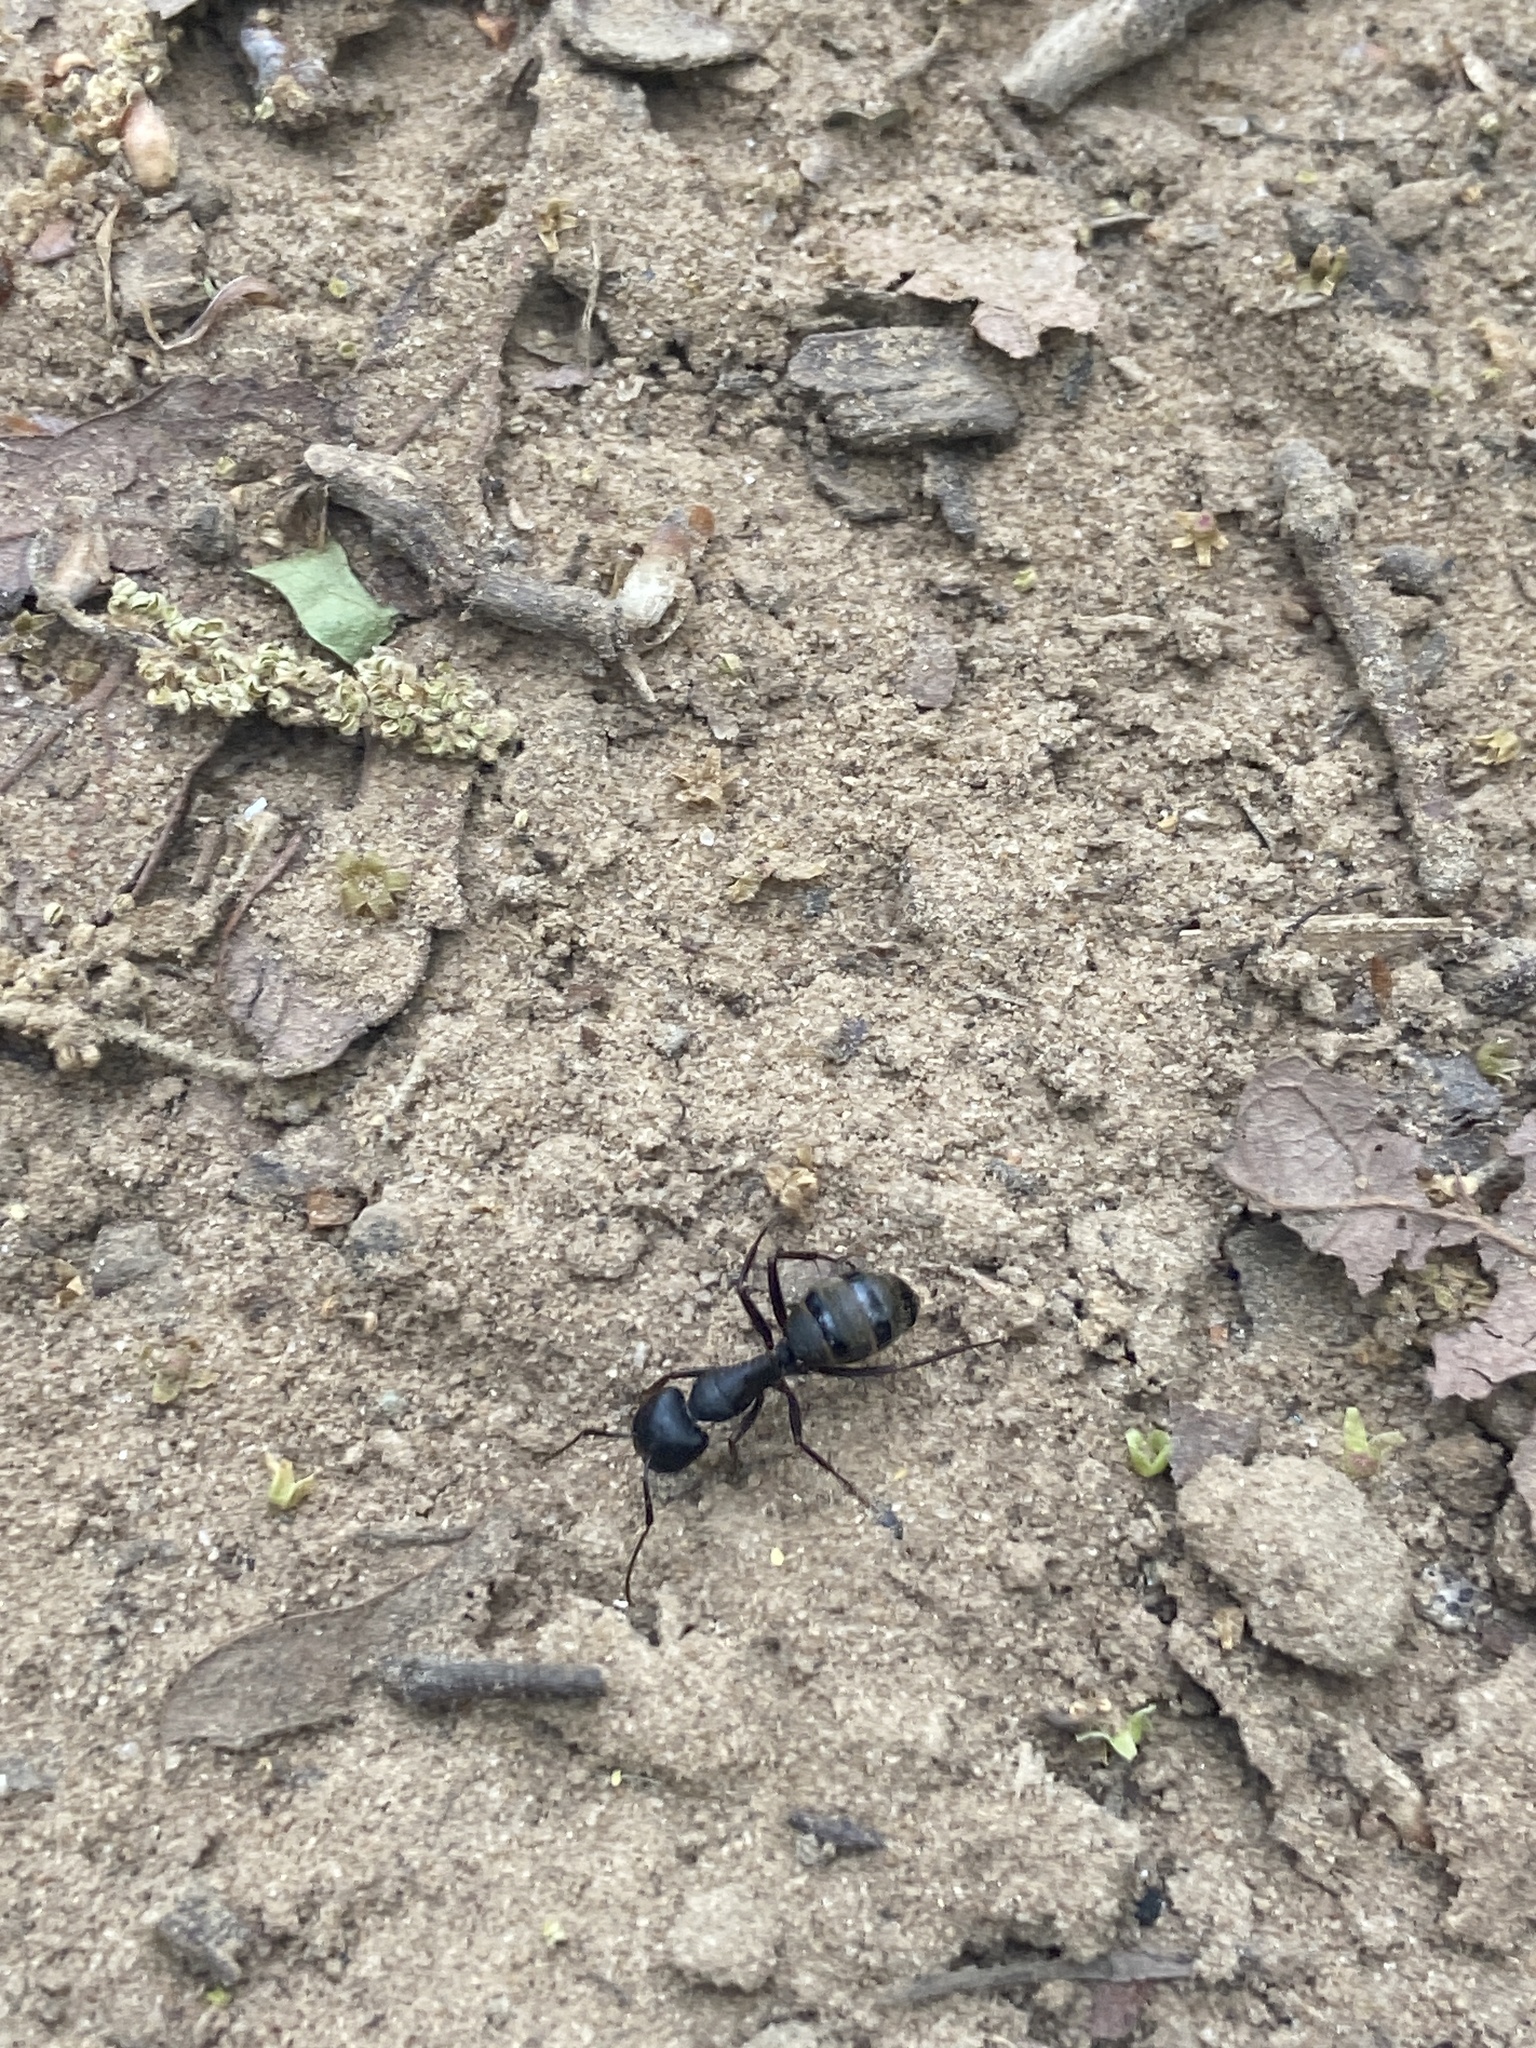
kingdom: Animalia
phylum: Arthropoda
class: Insecta
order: Hymenoptera
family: Formicidae
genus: Camponotus
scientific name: Camponotus pennsylvanicus
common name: Black carpenter ant
